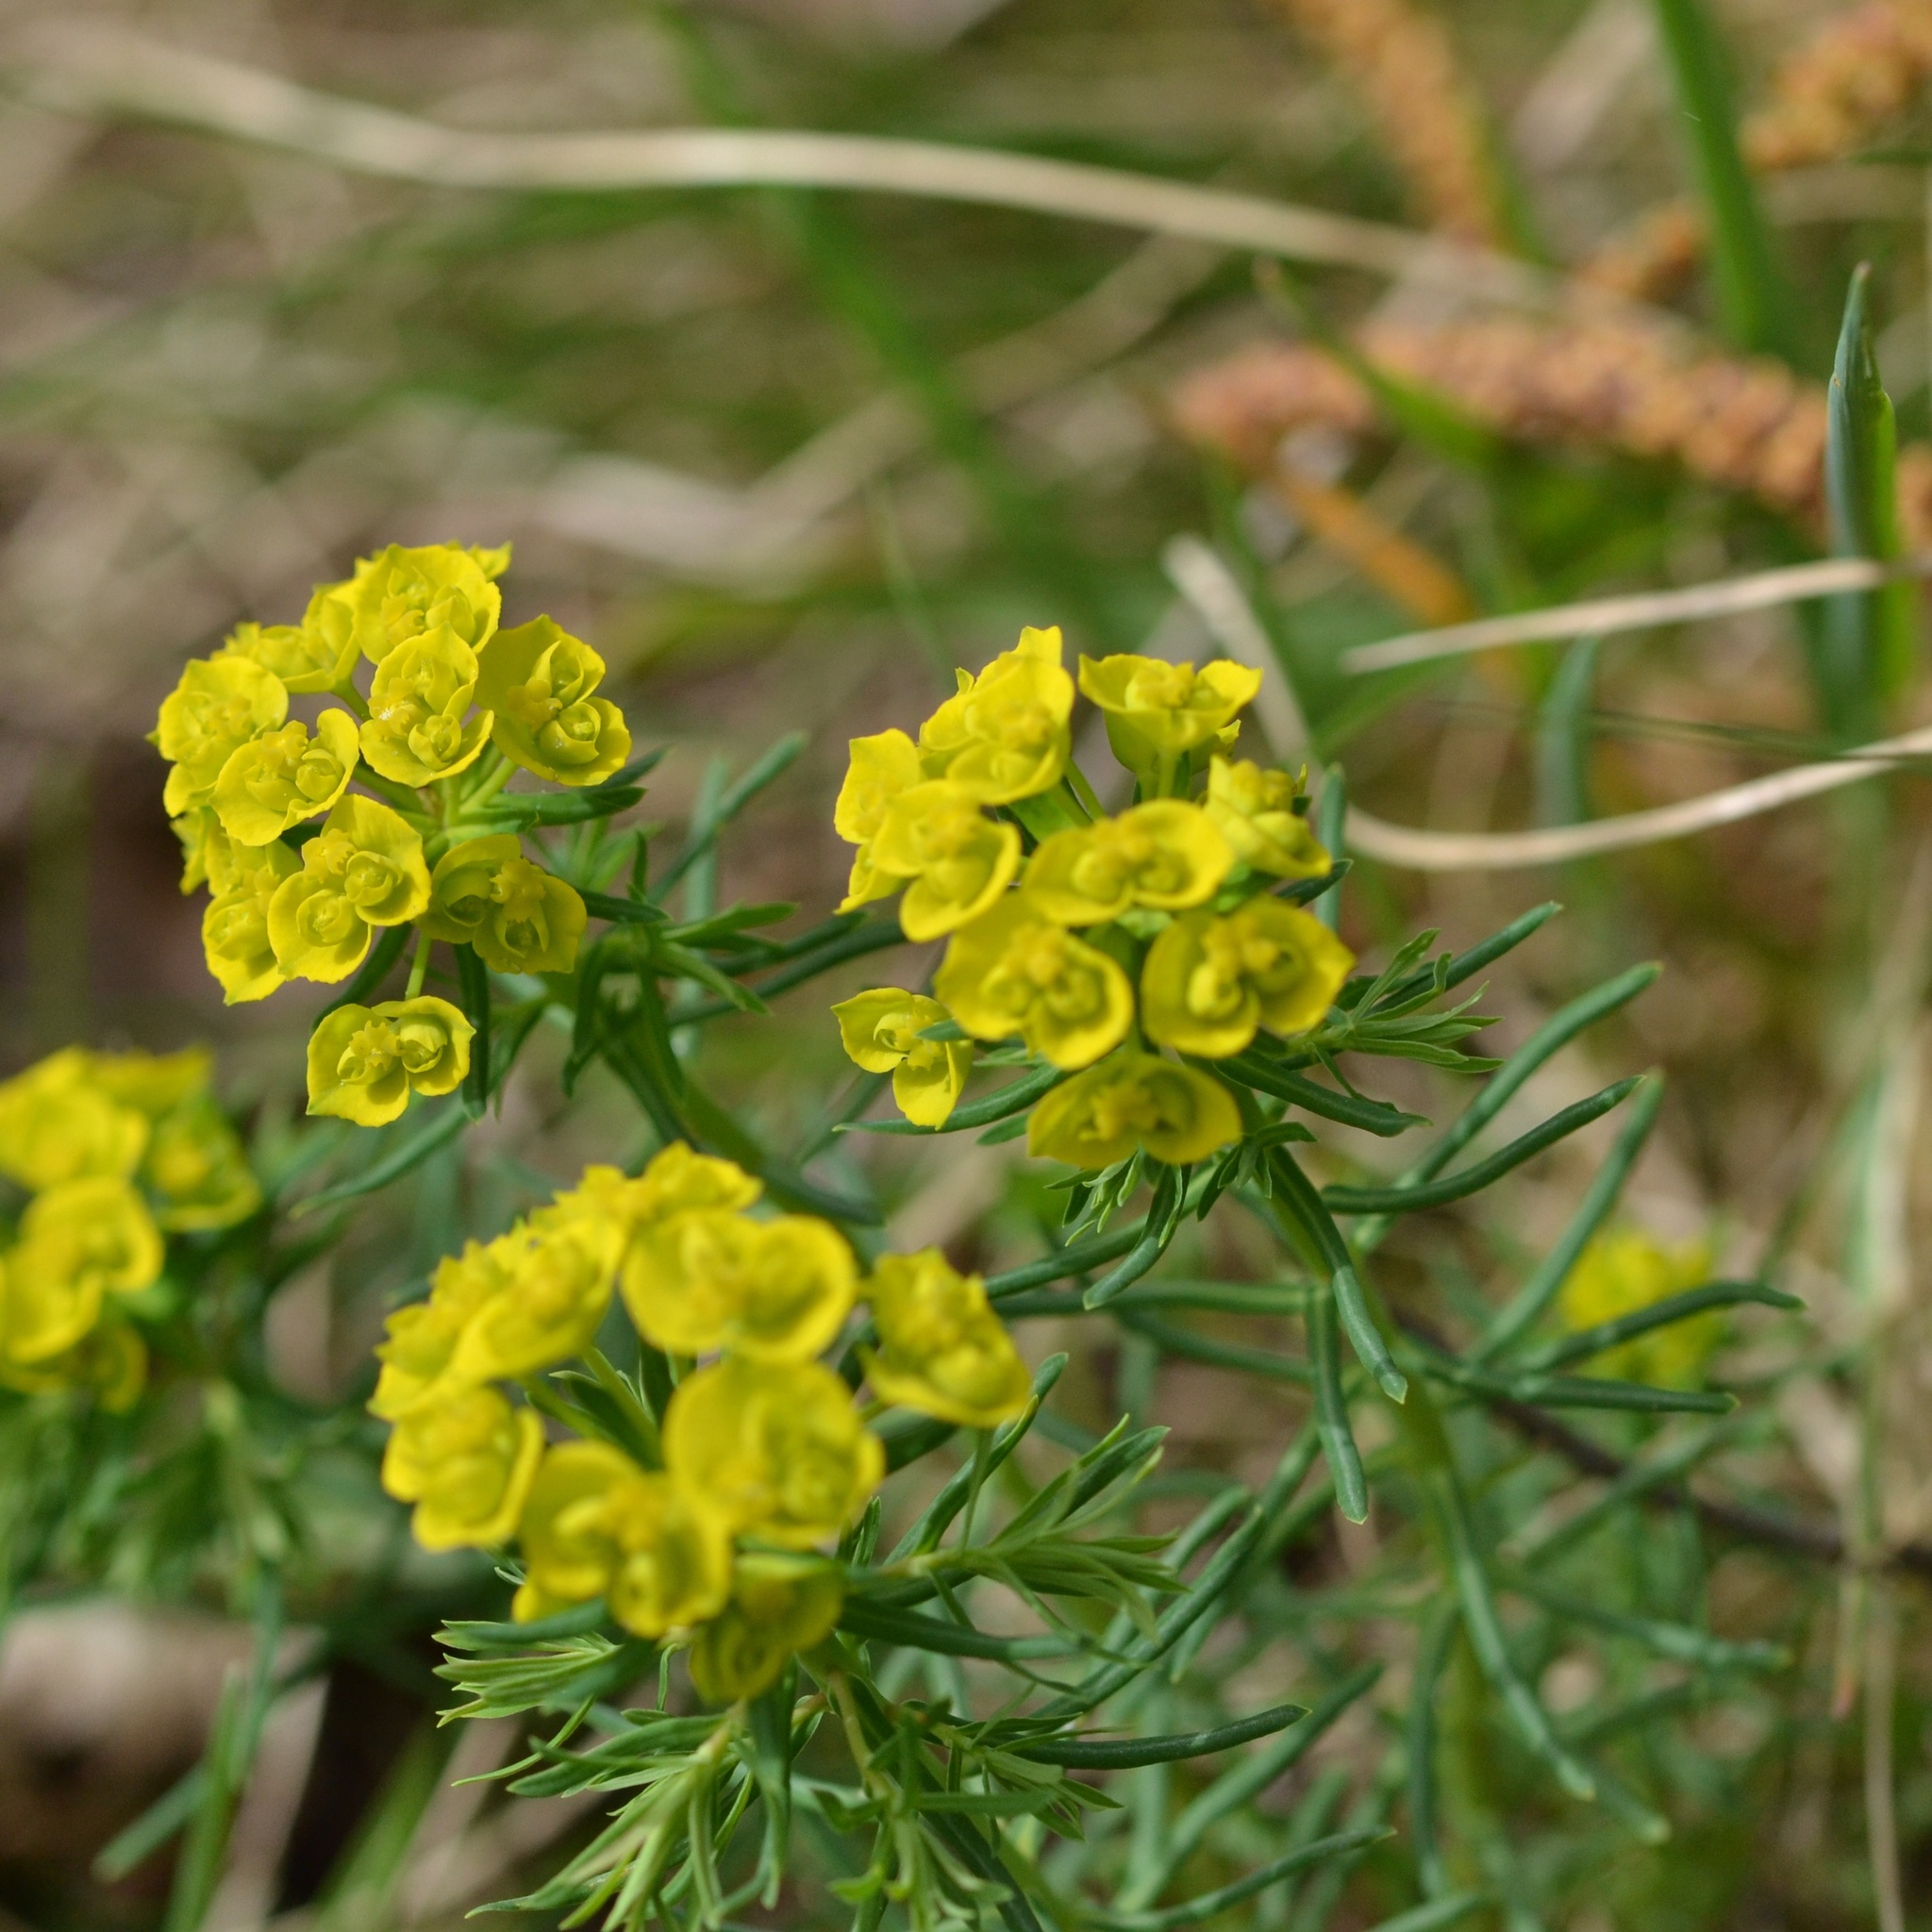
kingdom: Plantae
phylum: Tracheophyta
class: Magnoliopsida
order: Malpighiales
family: Euphorbiaceae
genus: Euphorbia
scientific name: Euphorbia cyparissias
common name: Cypress spurge
